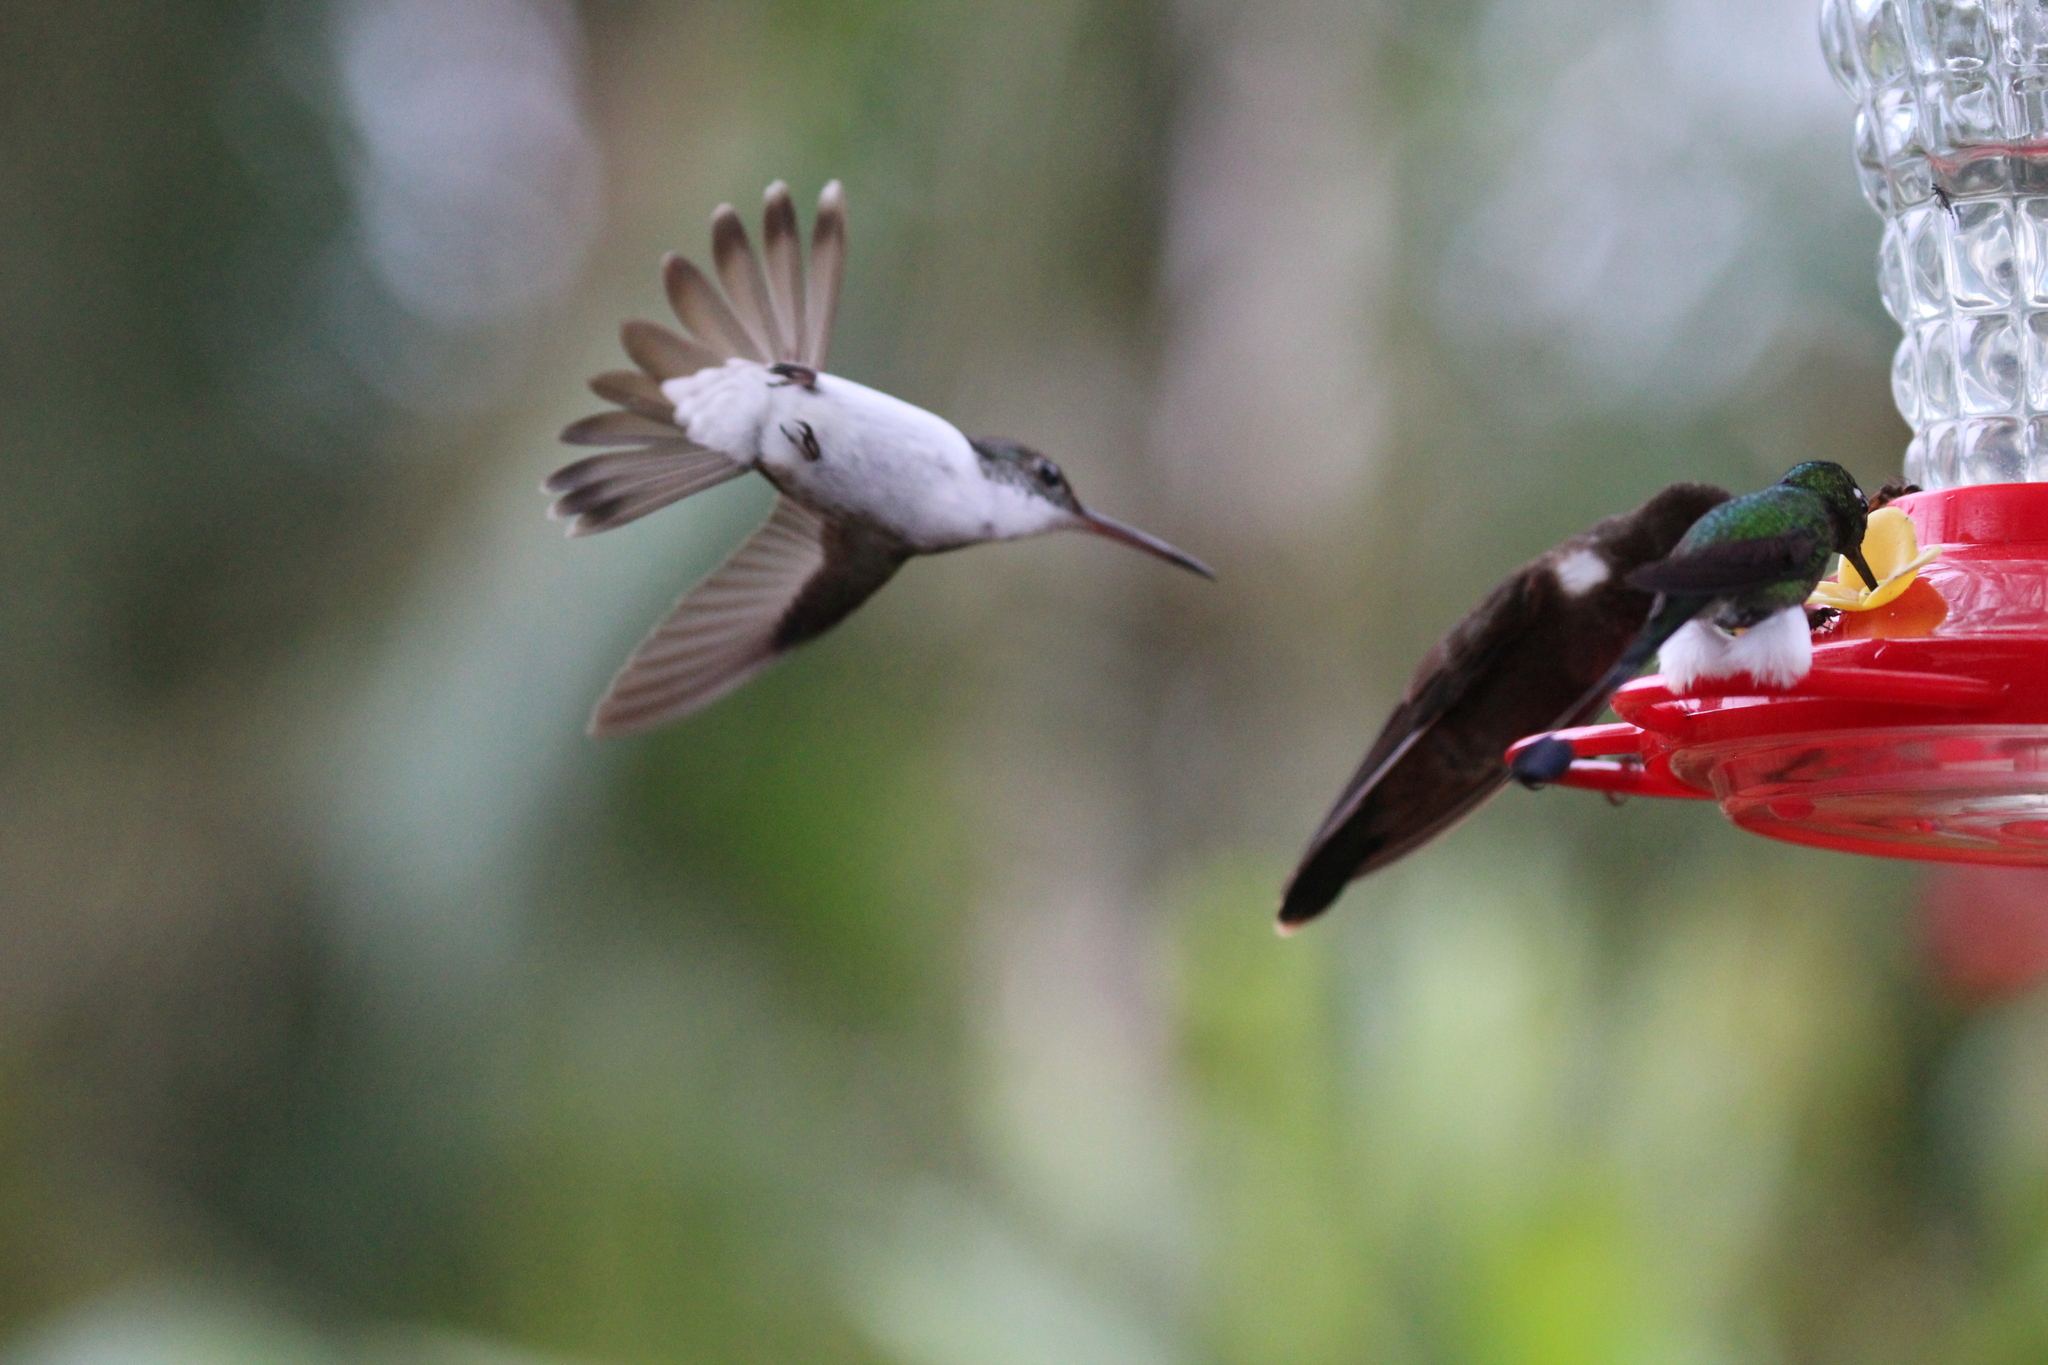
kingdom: Animalia
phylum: Chordata
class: Aves
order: Apodiformes
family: Trochilidae
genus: Uranomitra
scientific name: Uranomitra franciae
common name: Andean emerald
